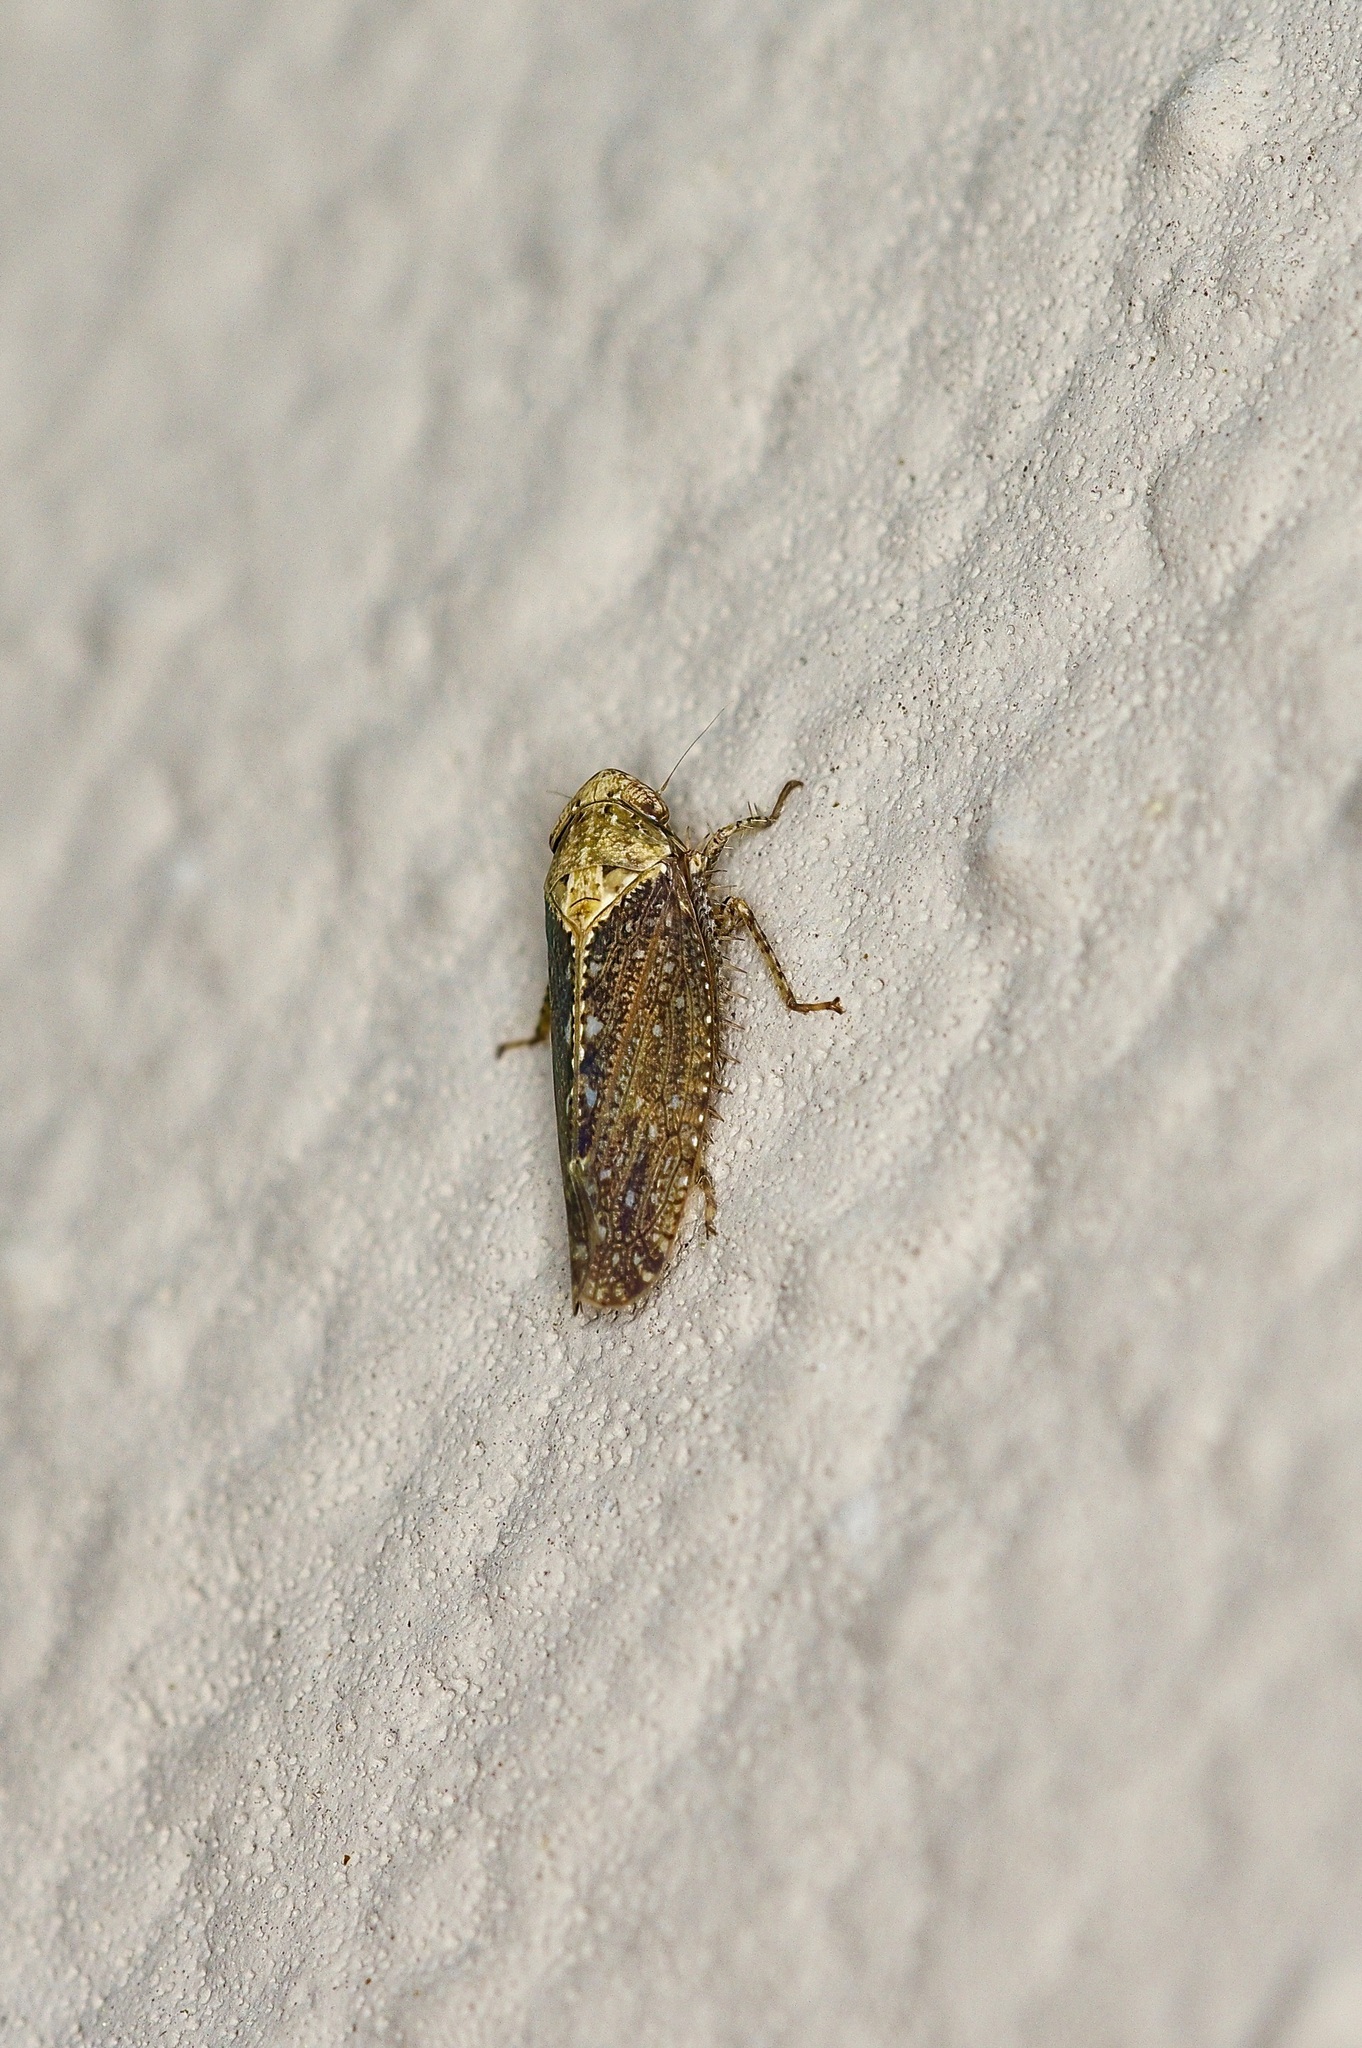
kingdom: Animalia
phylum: Arthropoda
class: Insecta
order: Hemiptera
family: Cicadellidae
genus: Excultanus
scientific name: Excultanus excultus
